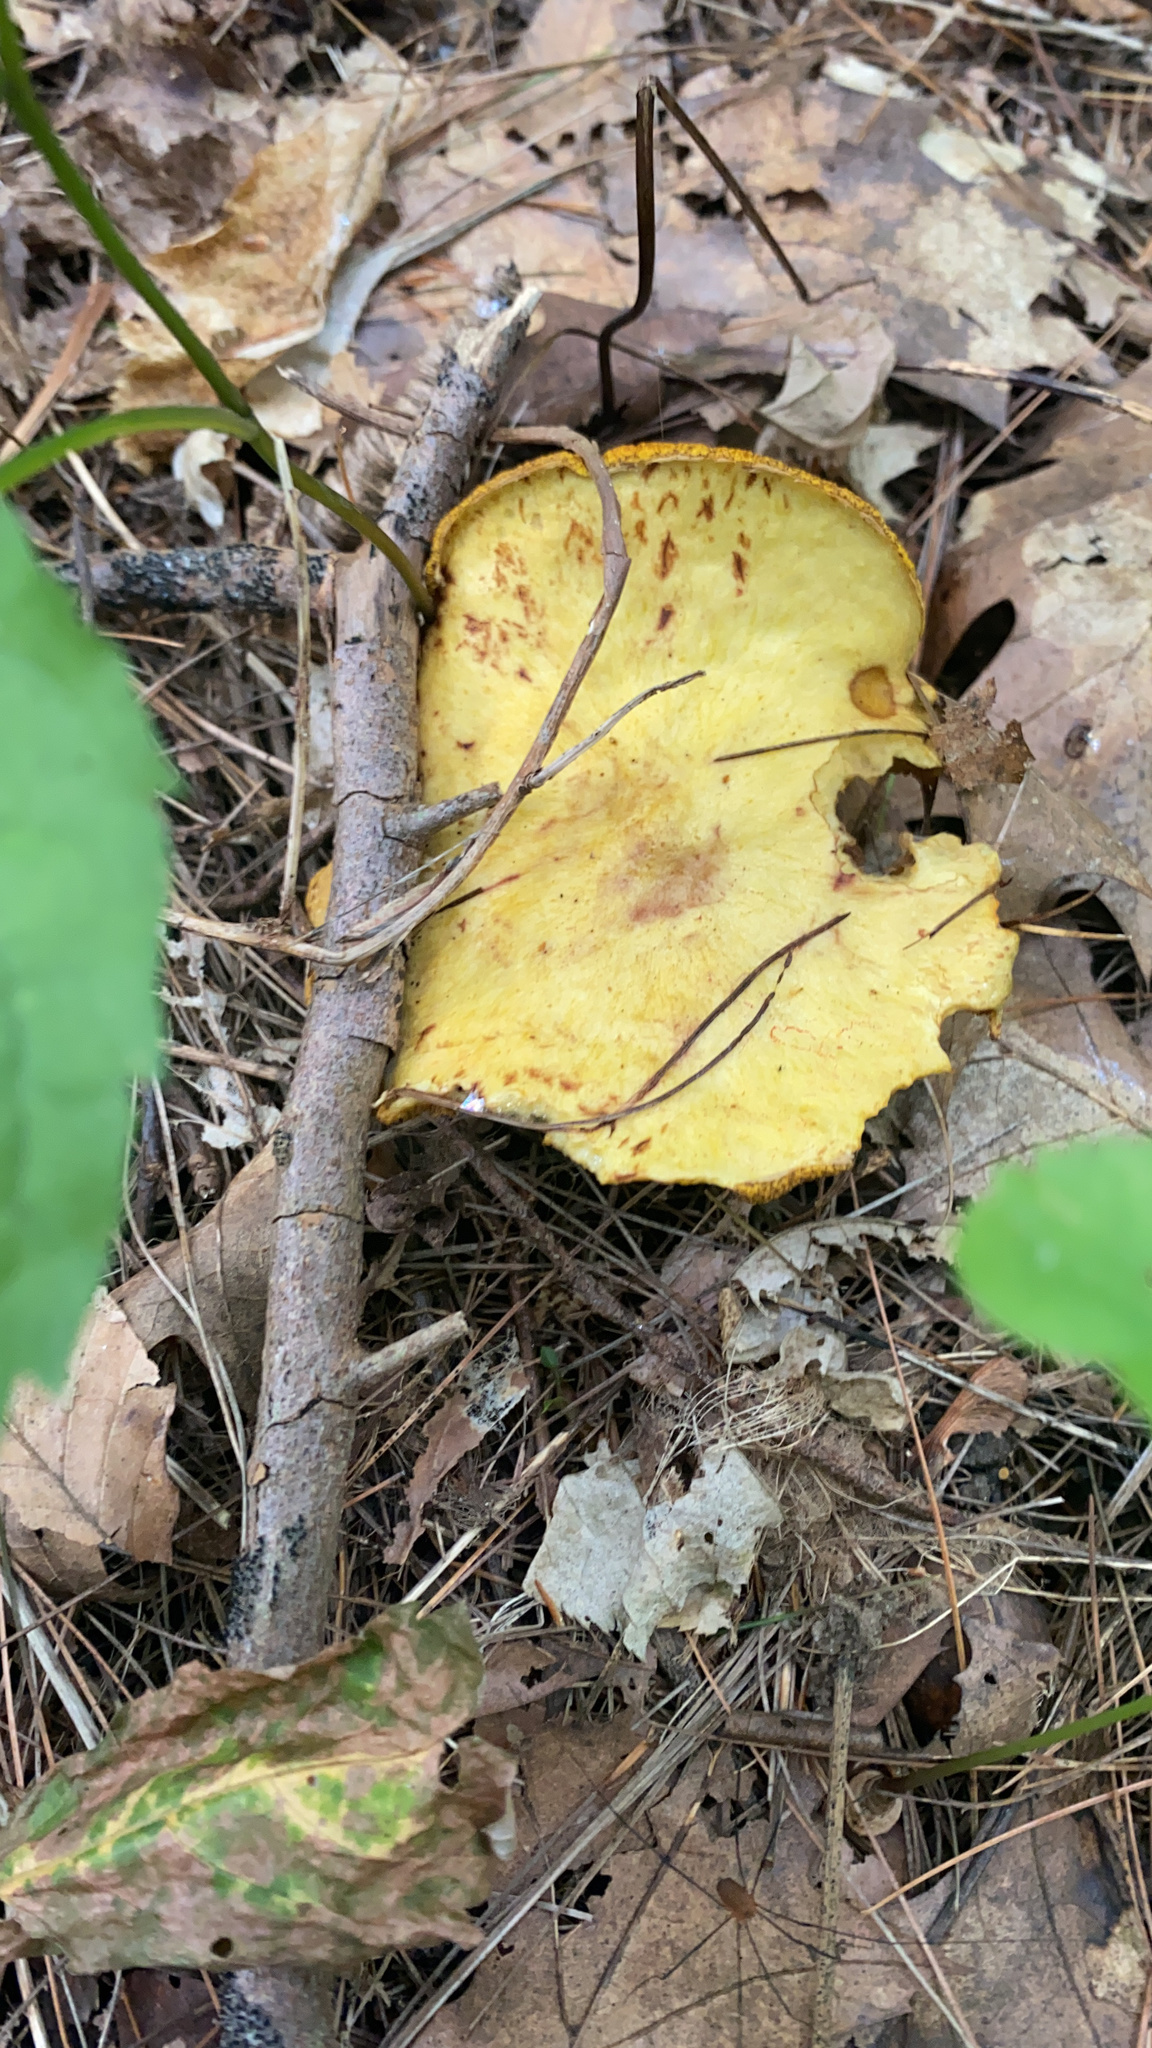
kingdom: Fungi
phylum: Basidiomycota
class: Agaricomycetes
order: Boletales
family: Suillaceae
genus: Suillus
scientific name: Suillus americanus
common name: Chicken fat mushroom
